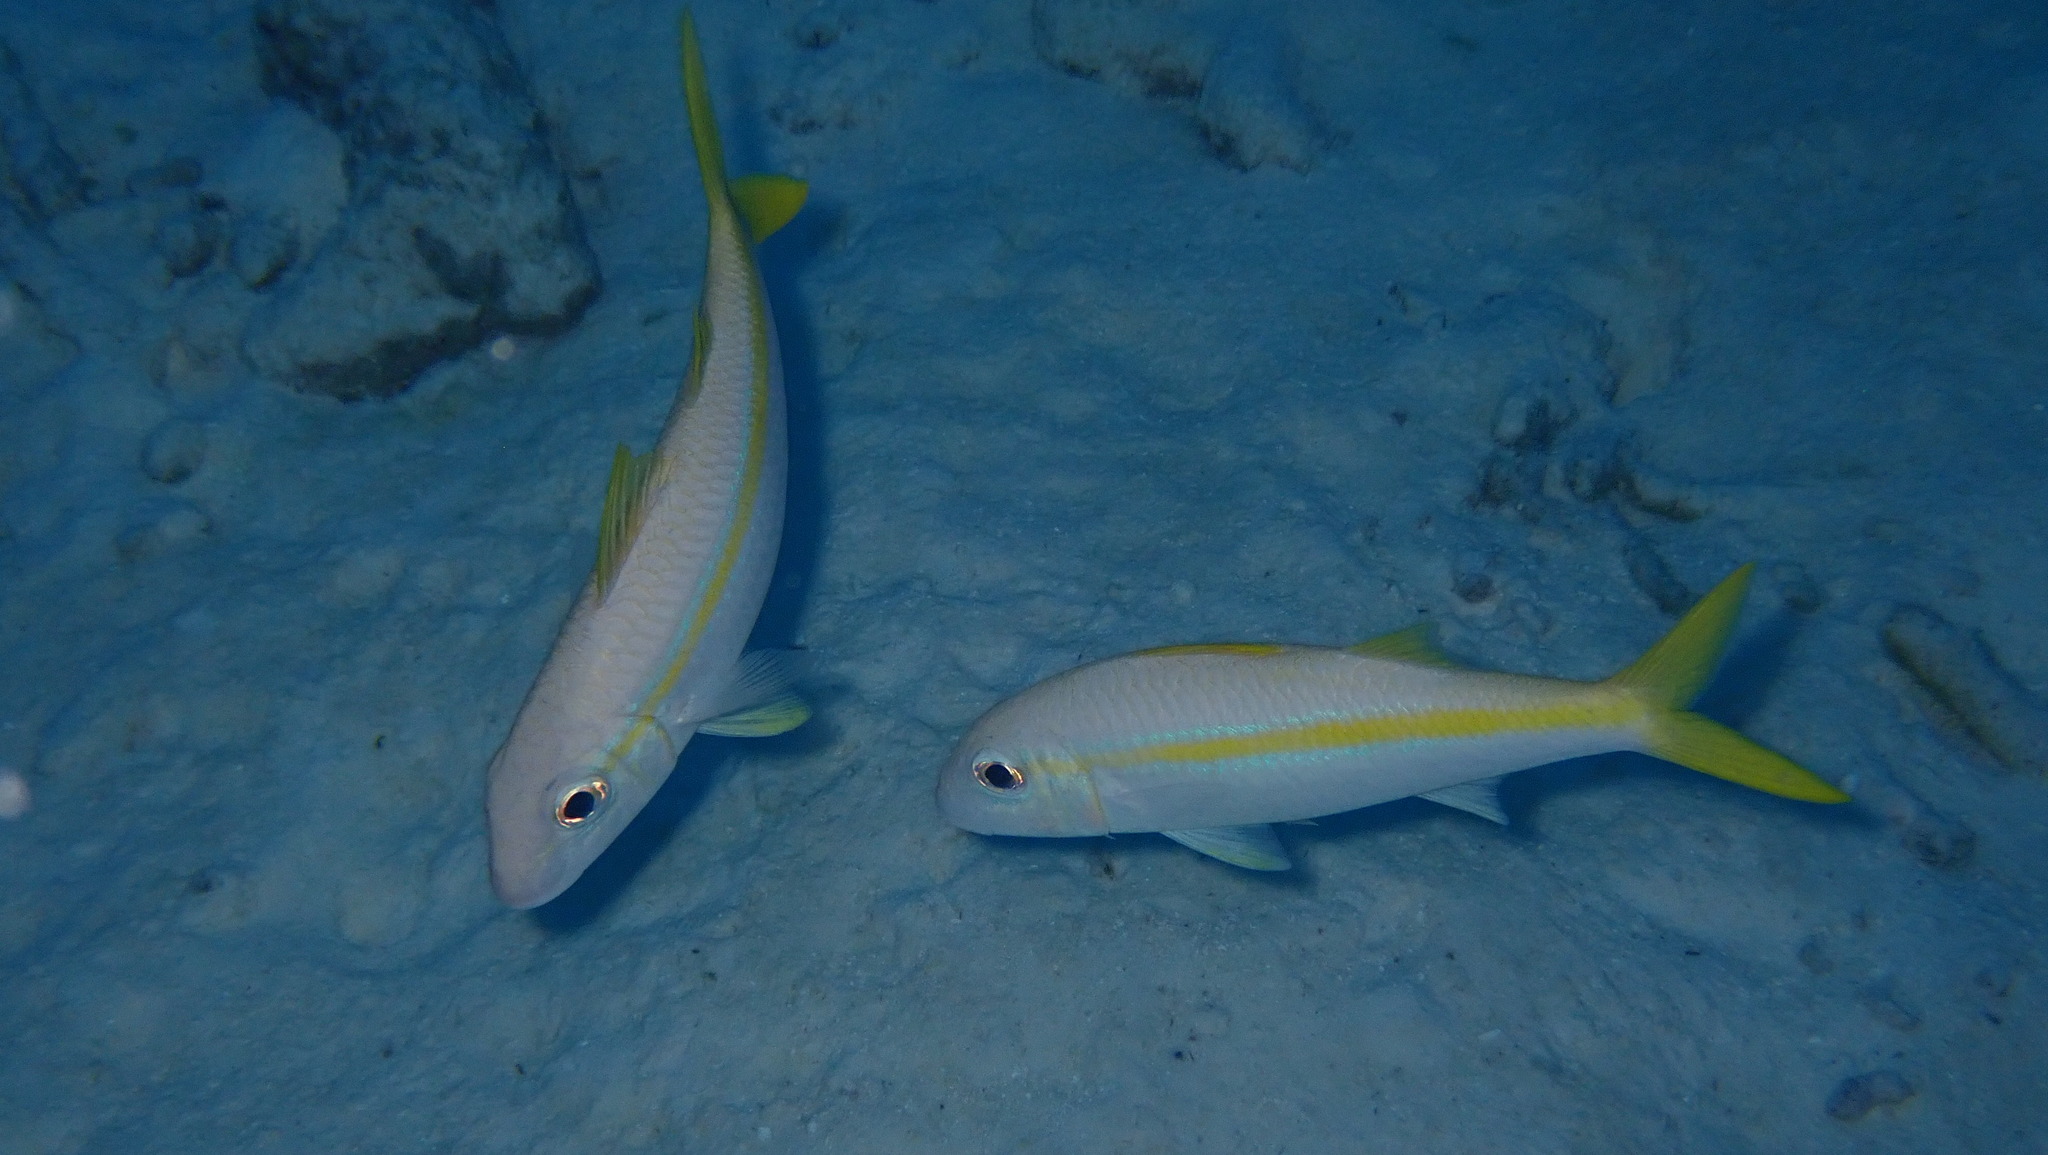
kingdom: Animalia
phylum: Chordata
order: Perciformes
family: Mullidae
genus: Mulloidichthys
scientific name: Mulloidichthys martinicus
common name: Yellow goatfish
